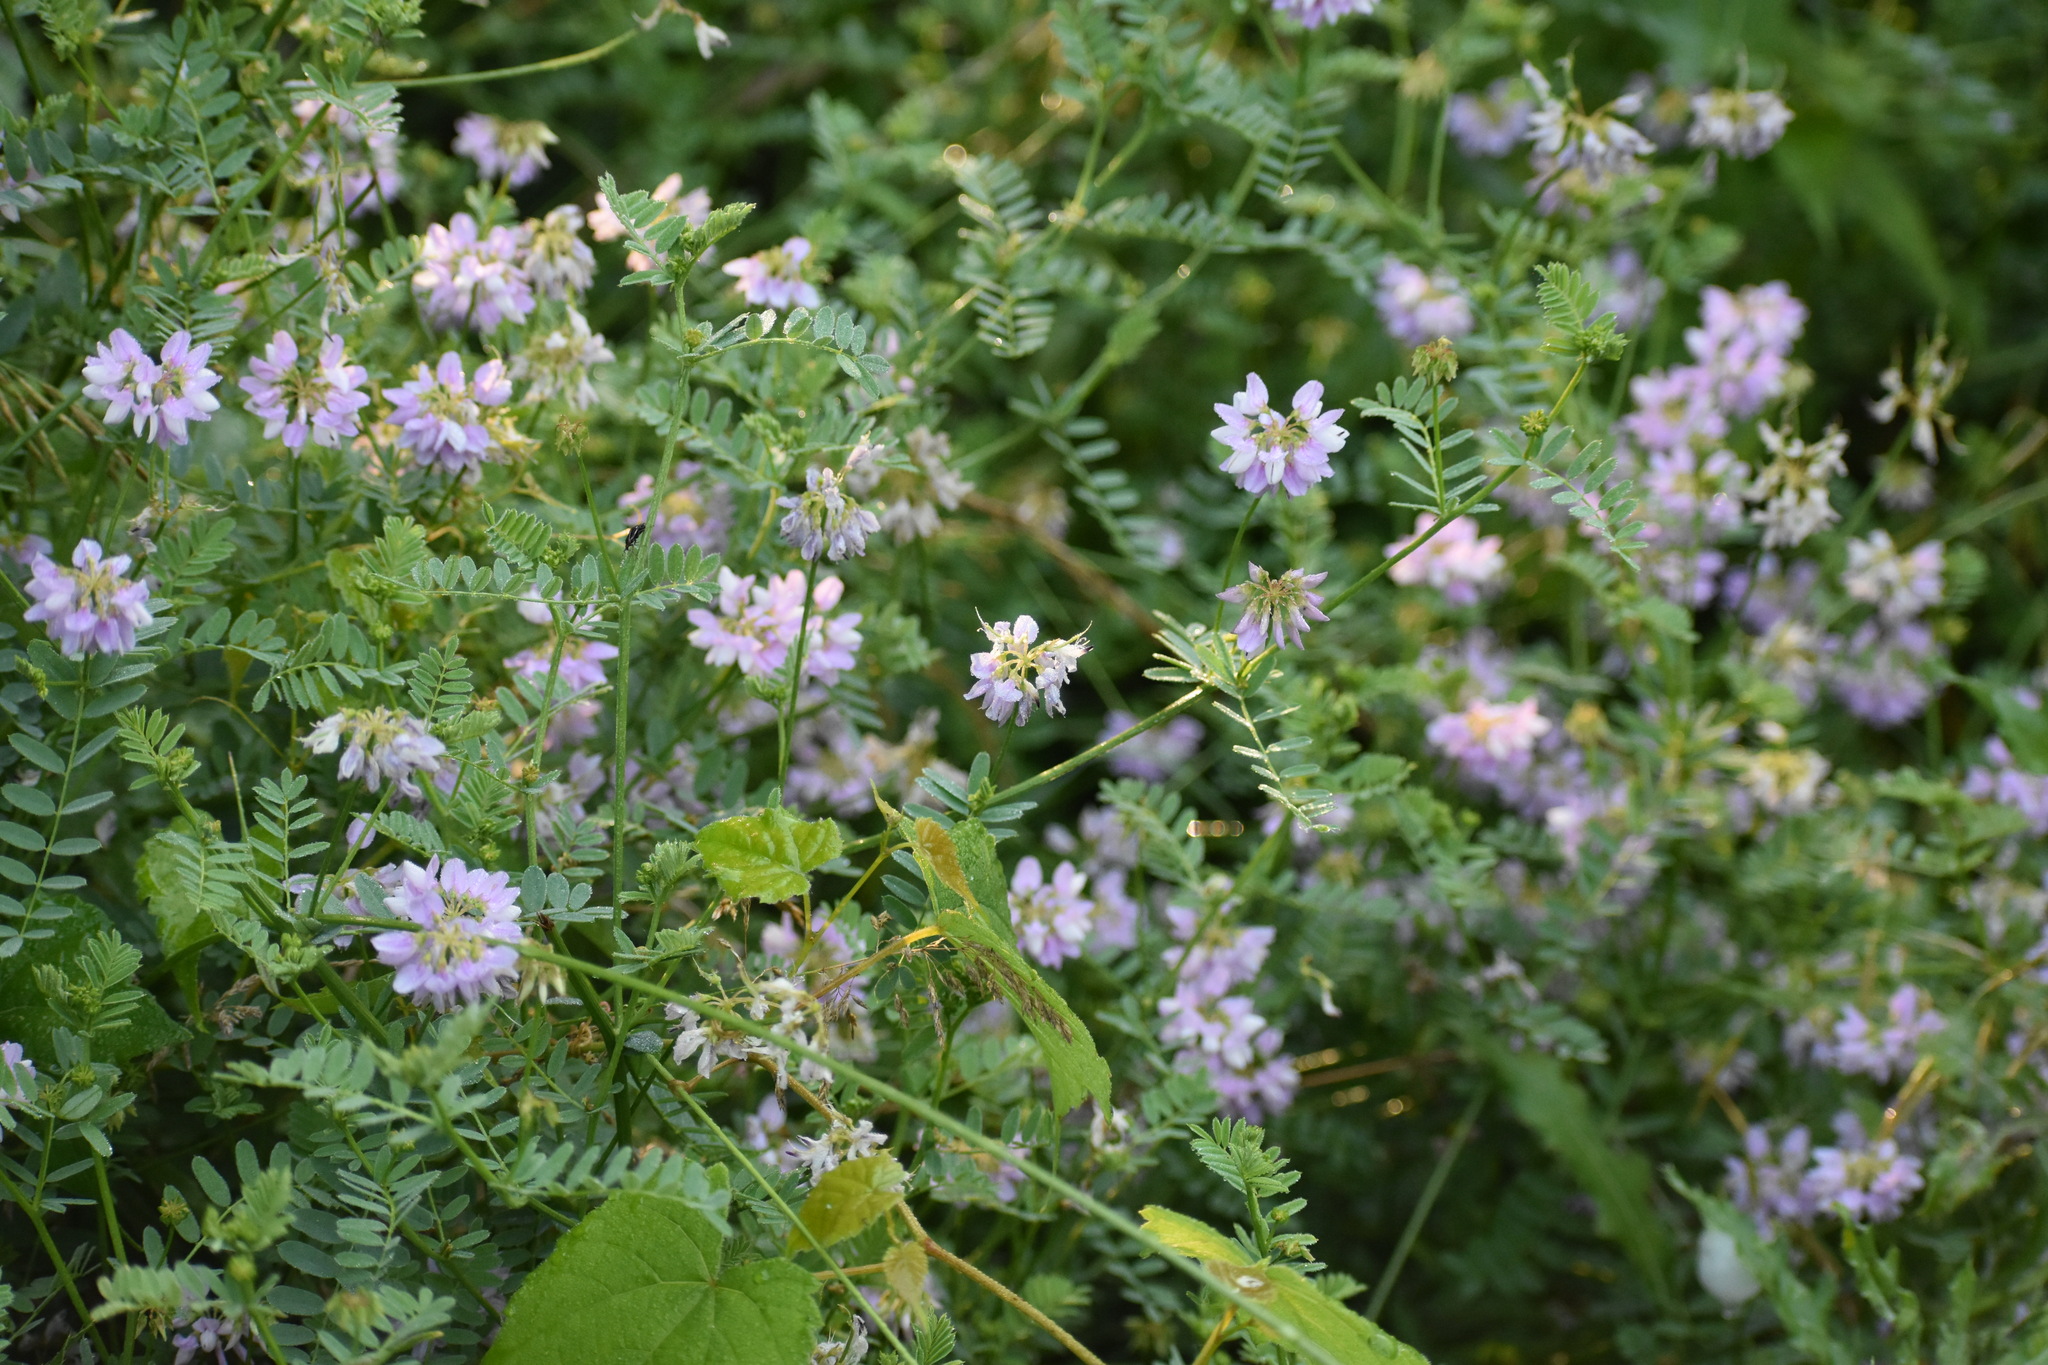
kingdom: Plantae
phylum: Tracheophyta
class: Magnoliopsida
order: Fabales
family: Fabaceae
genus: Coronilla
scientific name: Coronilla varia
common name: Crownvetch
